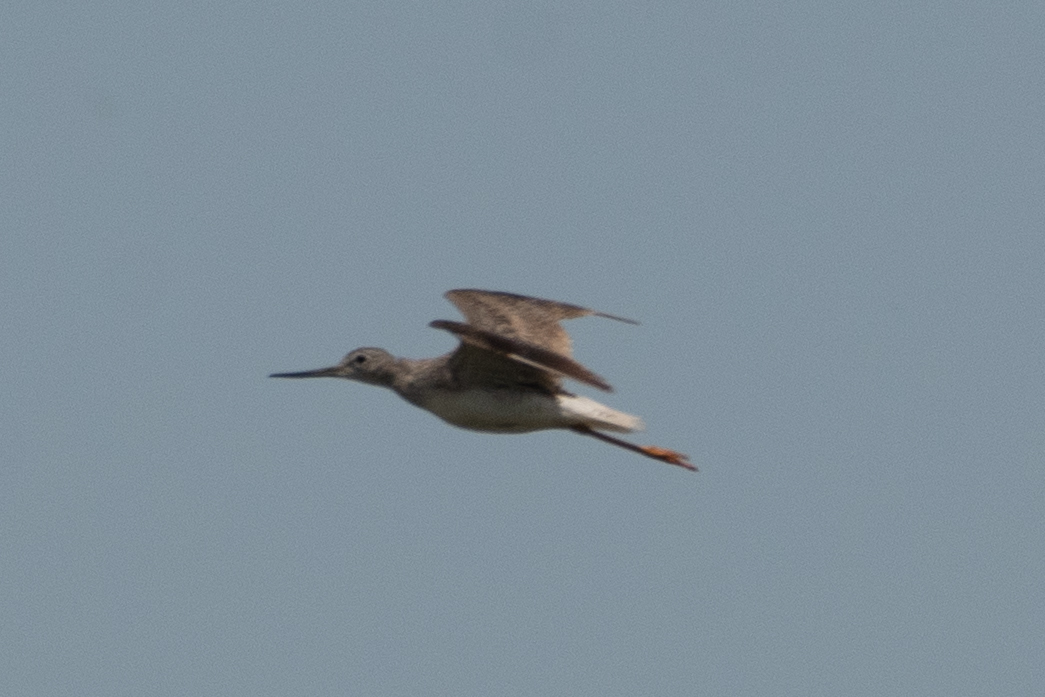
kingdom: Animalia
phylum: Chordata
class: Aves
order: Charadriiformes
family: Scolopacidae
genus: Tringa
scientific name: Tringa melanoleuca
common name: Greater yellowlegs
